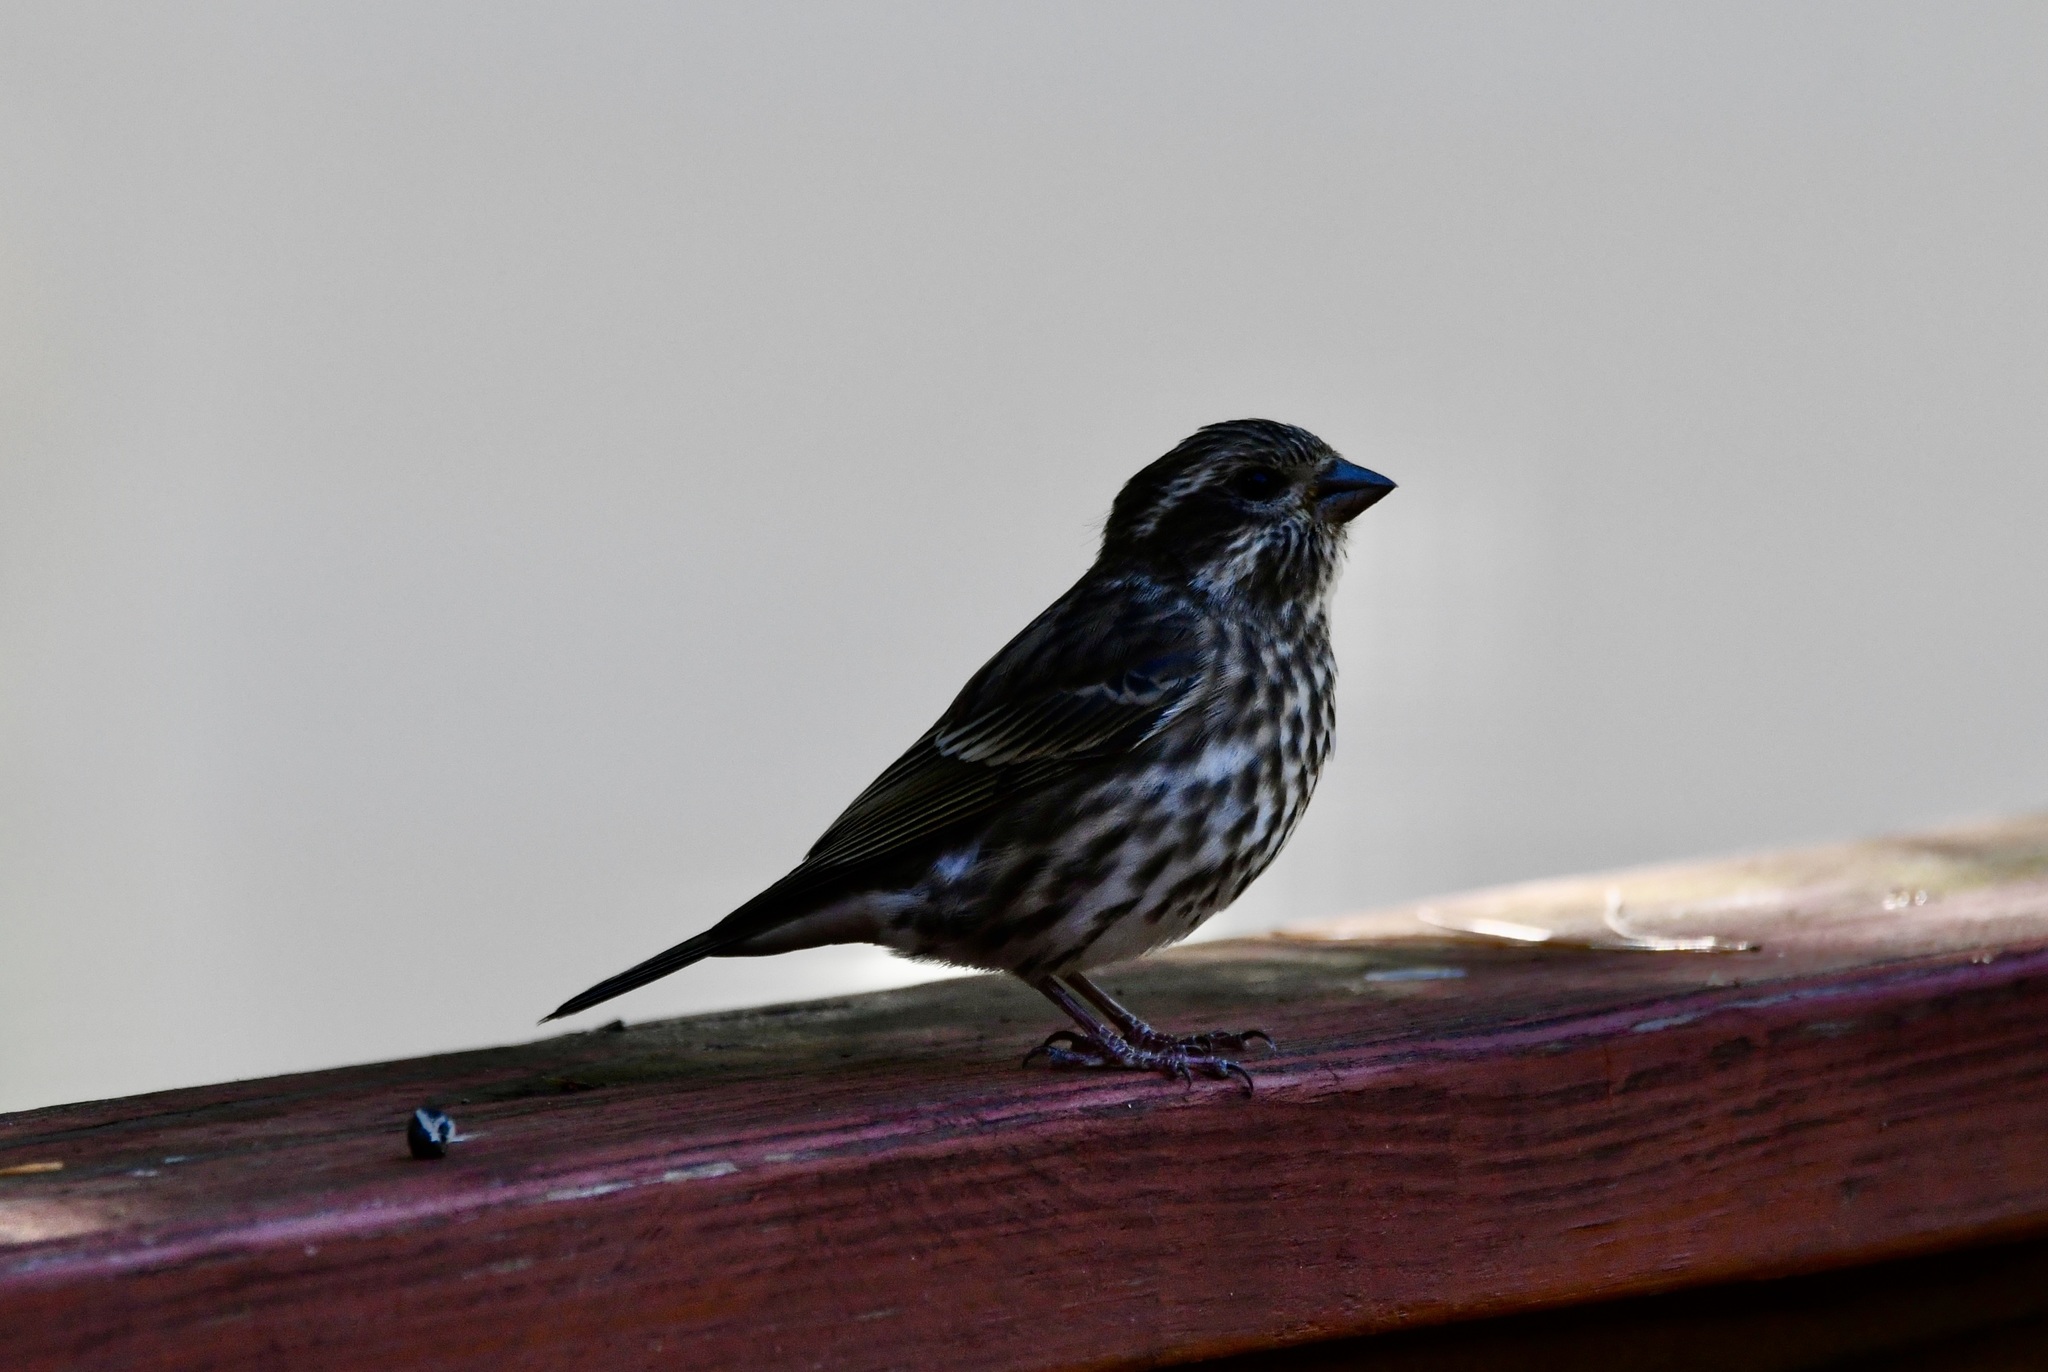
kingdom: Animalia
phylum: Chordata
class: Aves
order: Passeriformes
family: Fringillidae
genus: Haemorhous
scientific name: Haemorhous purpureus
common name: Purple finch
